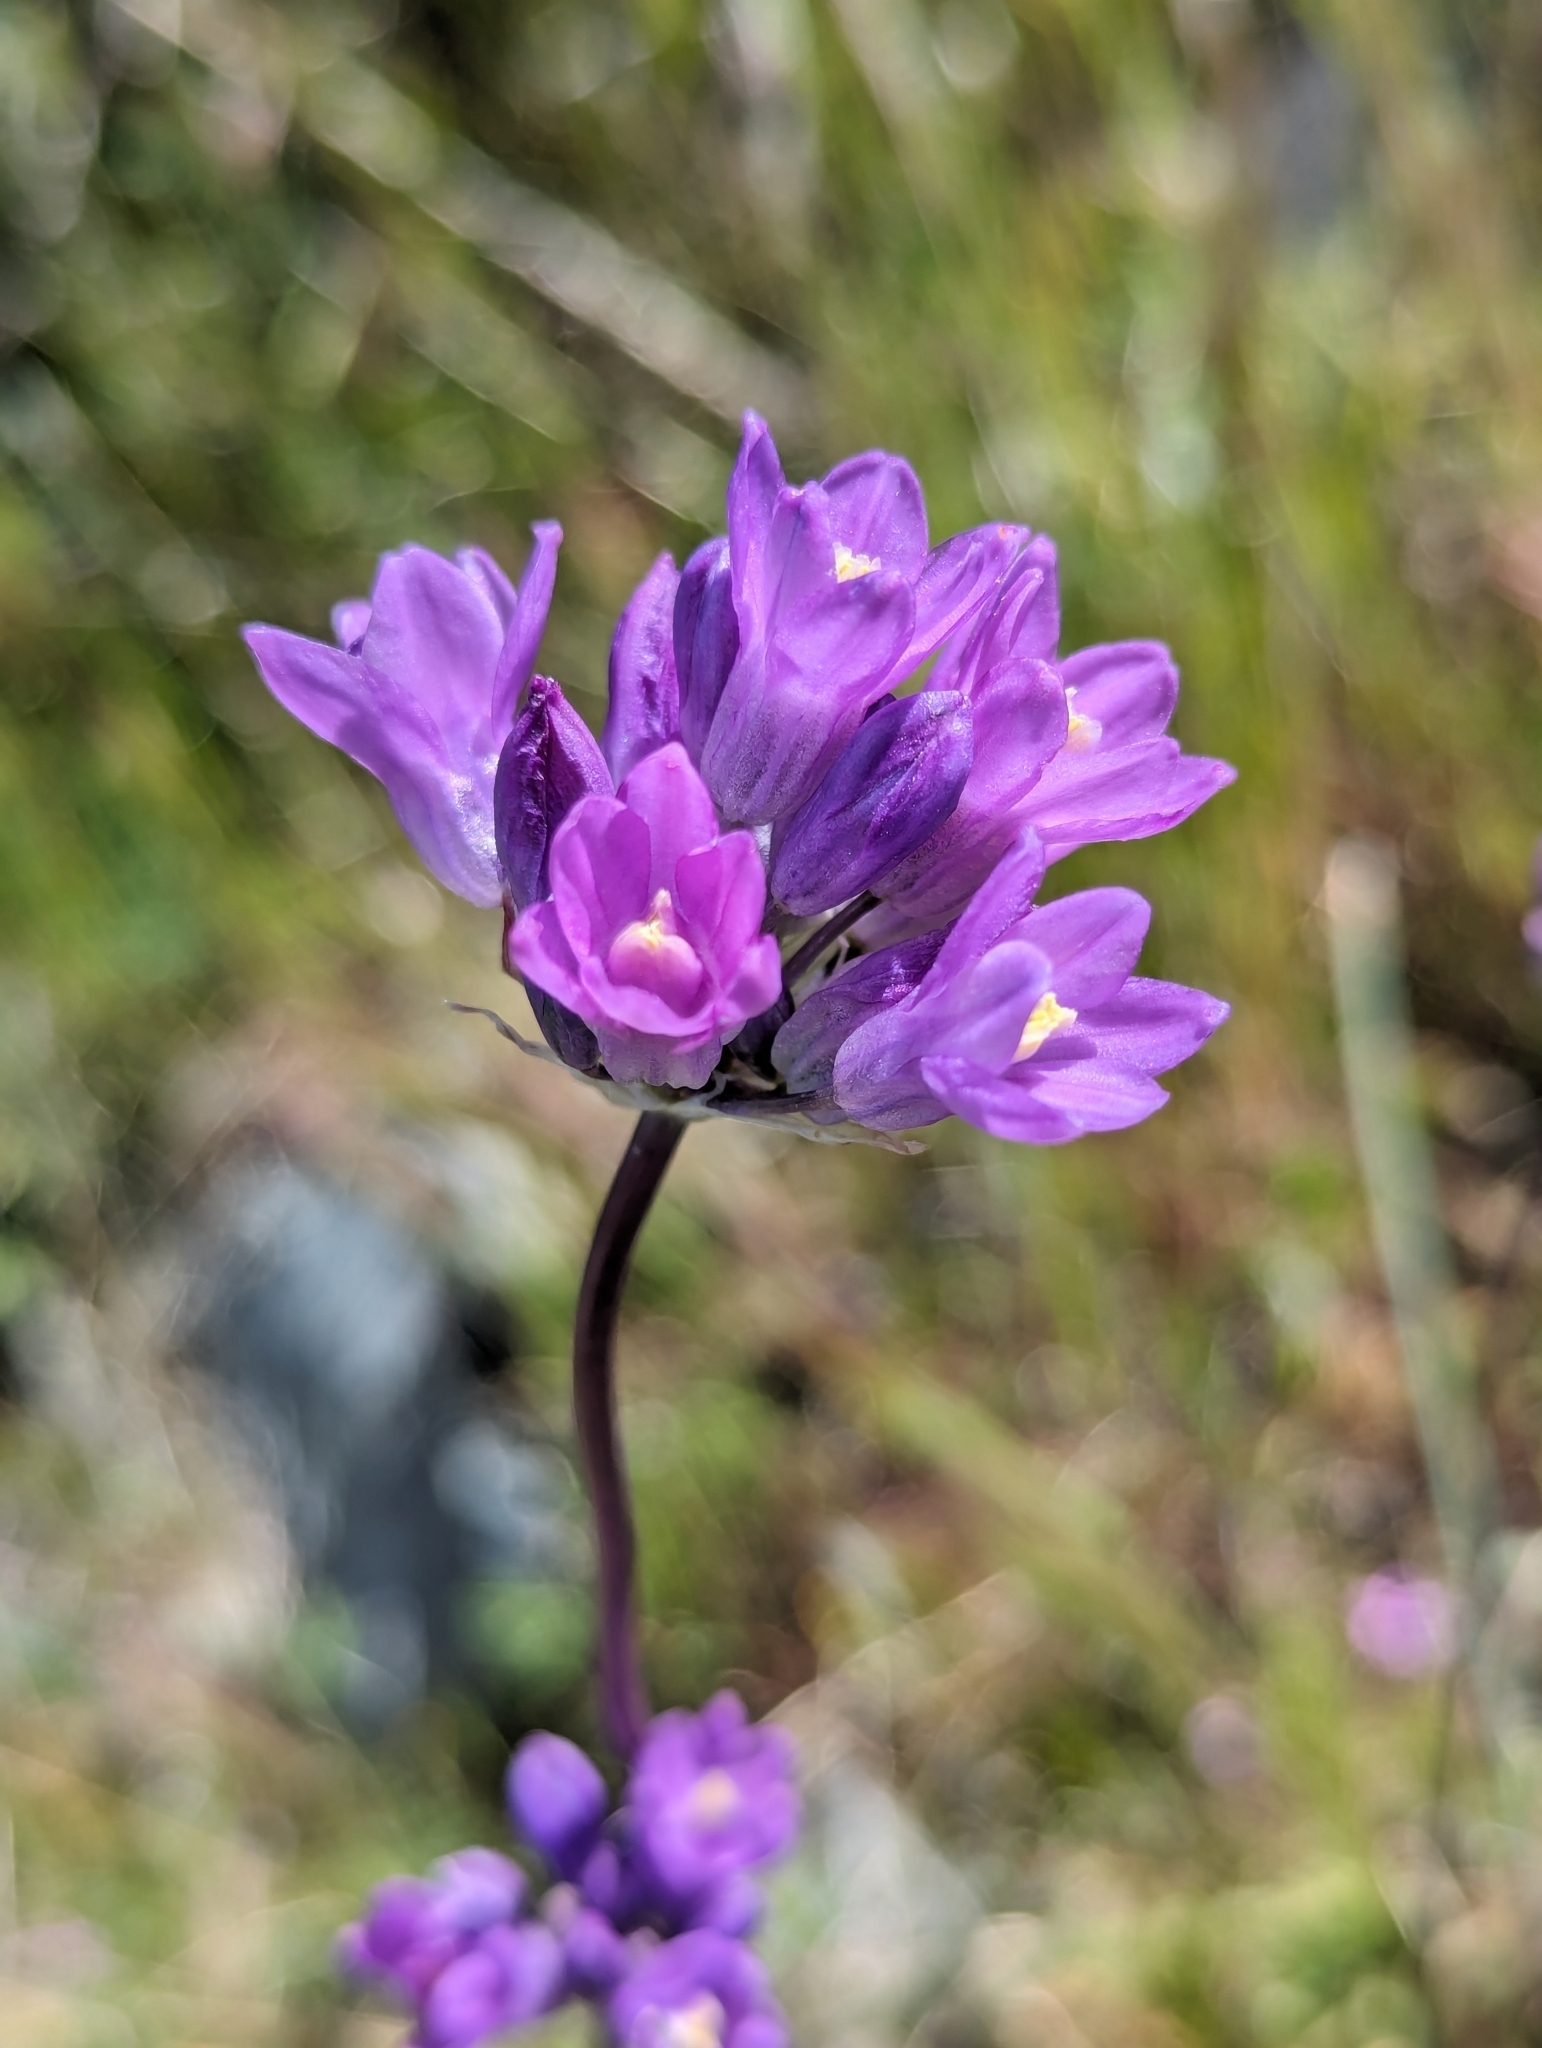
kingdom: Plantae
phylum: Tracheophyta
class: Liliopsida
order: Asparagales
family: Asparagaceae
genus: Dipterostemon
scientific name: Dipterostemon capitatus
